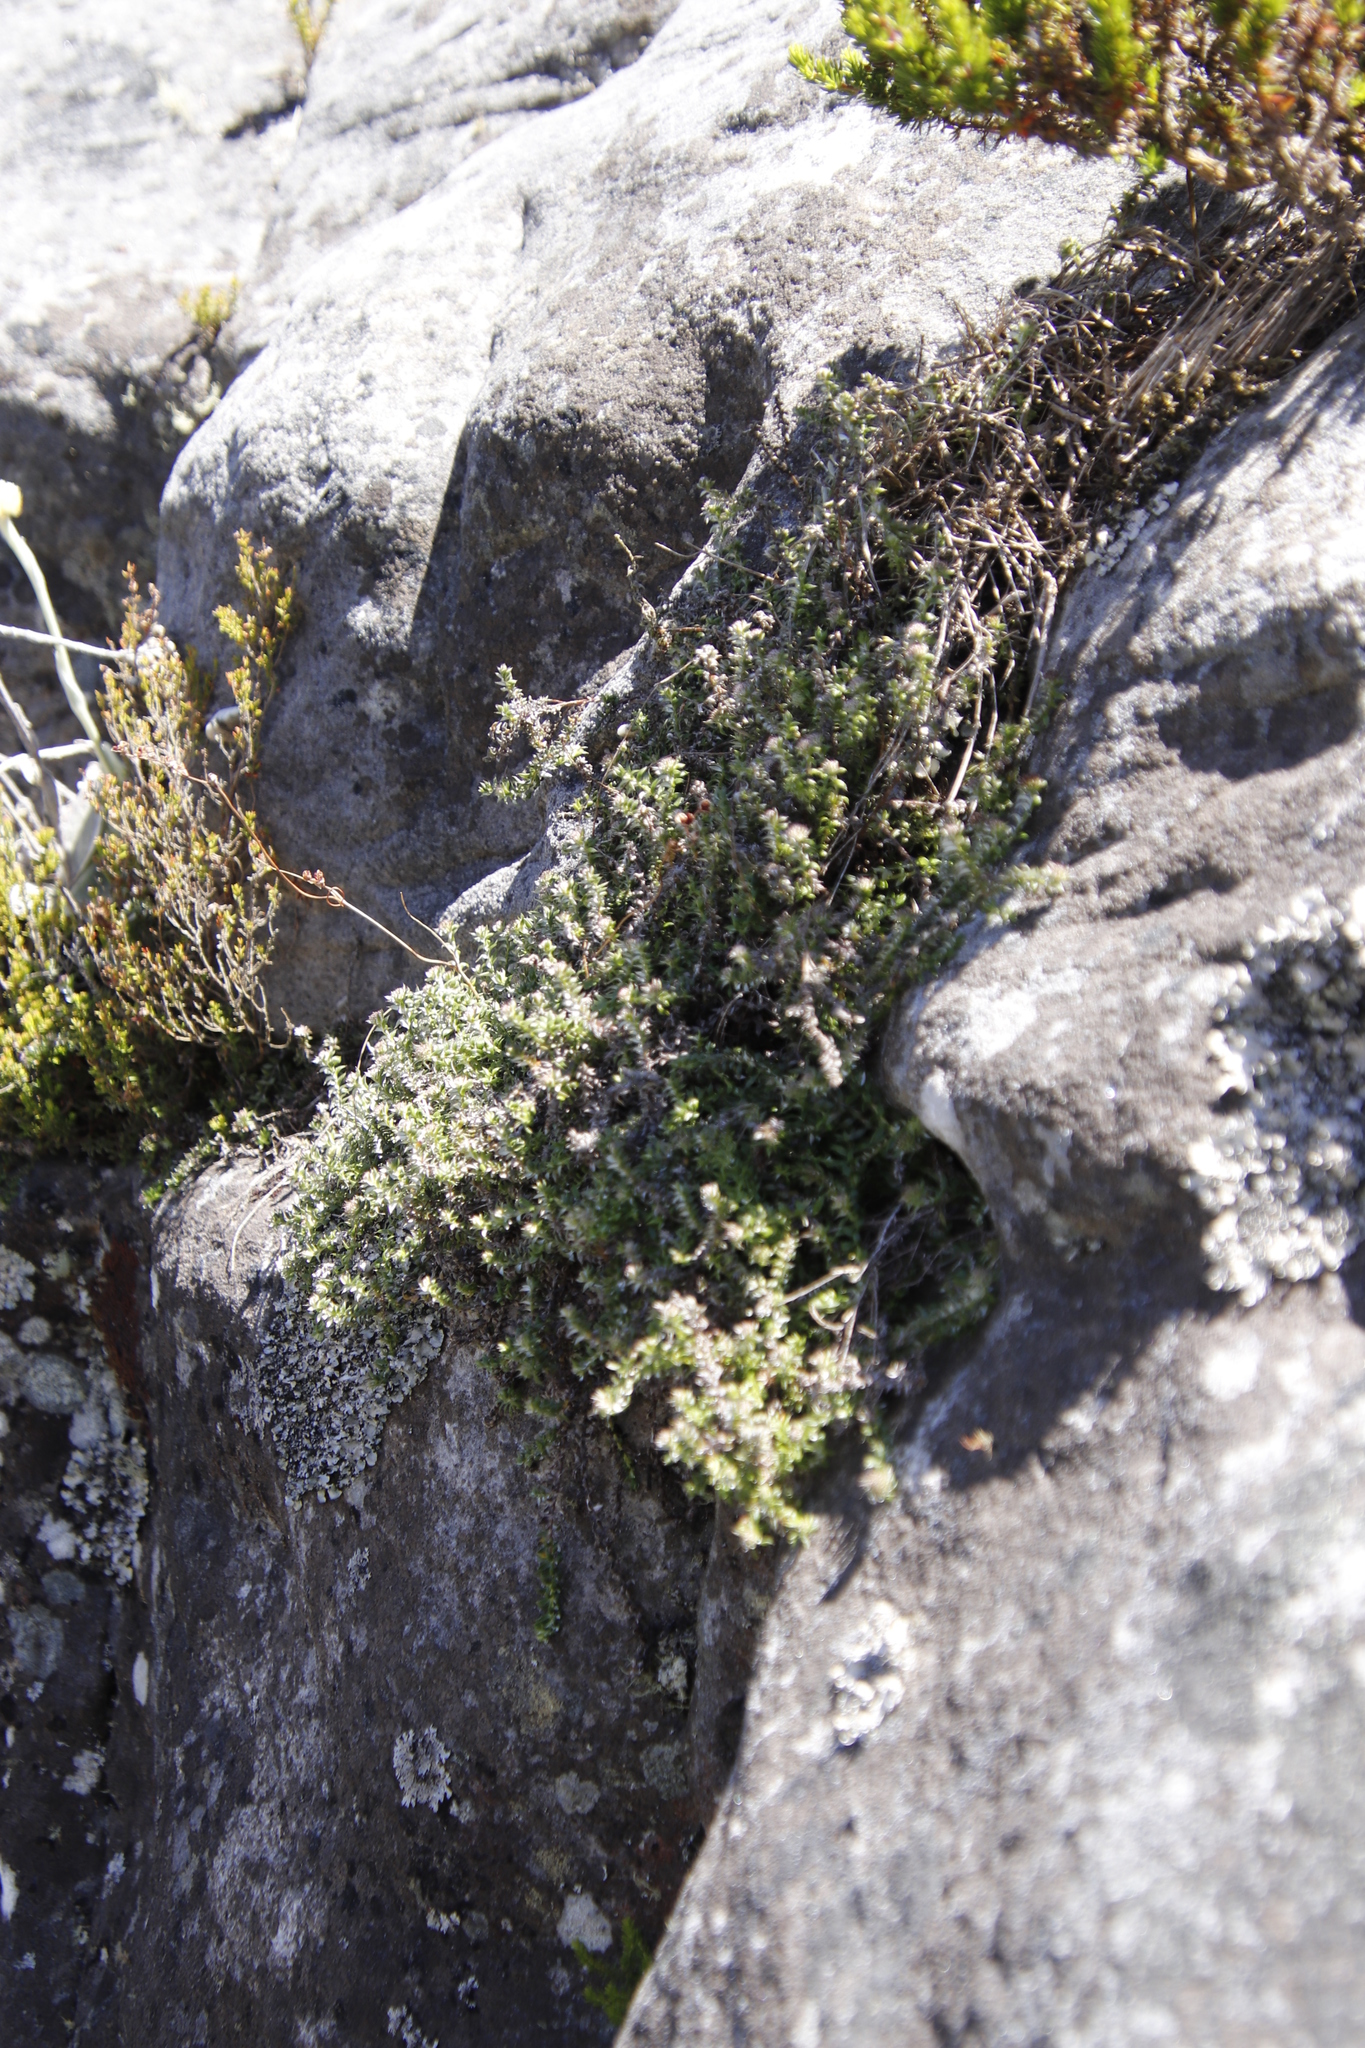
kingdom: Plantae
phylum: Tracheophyta
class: Magnoliopsida
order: Asterales
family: Asteraceae
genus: Metalasia
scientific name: Metalasia divergens
